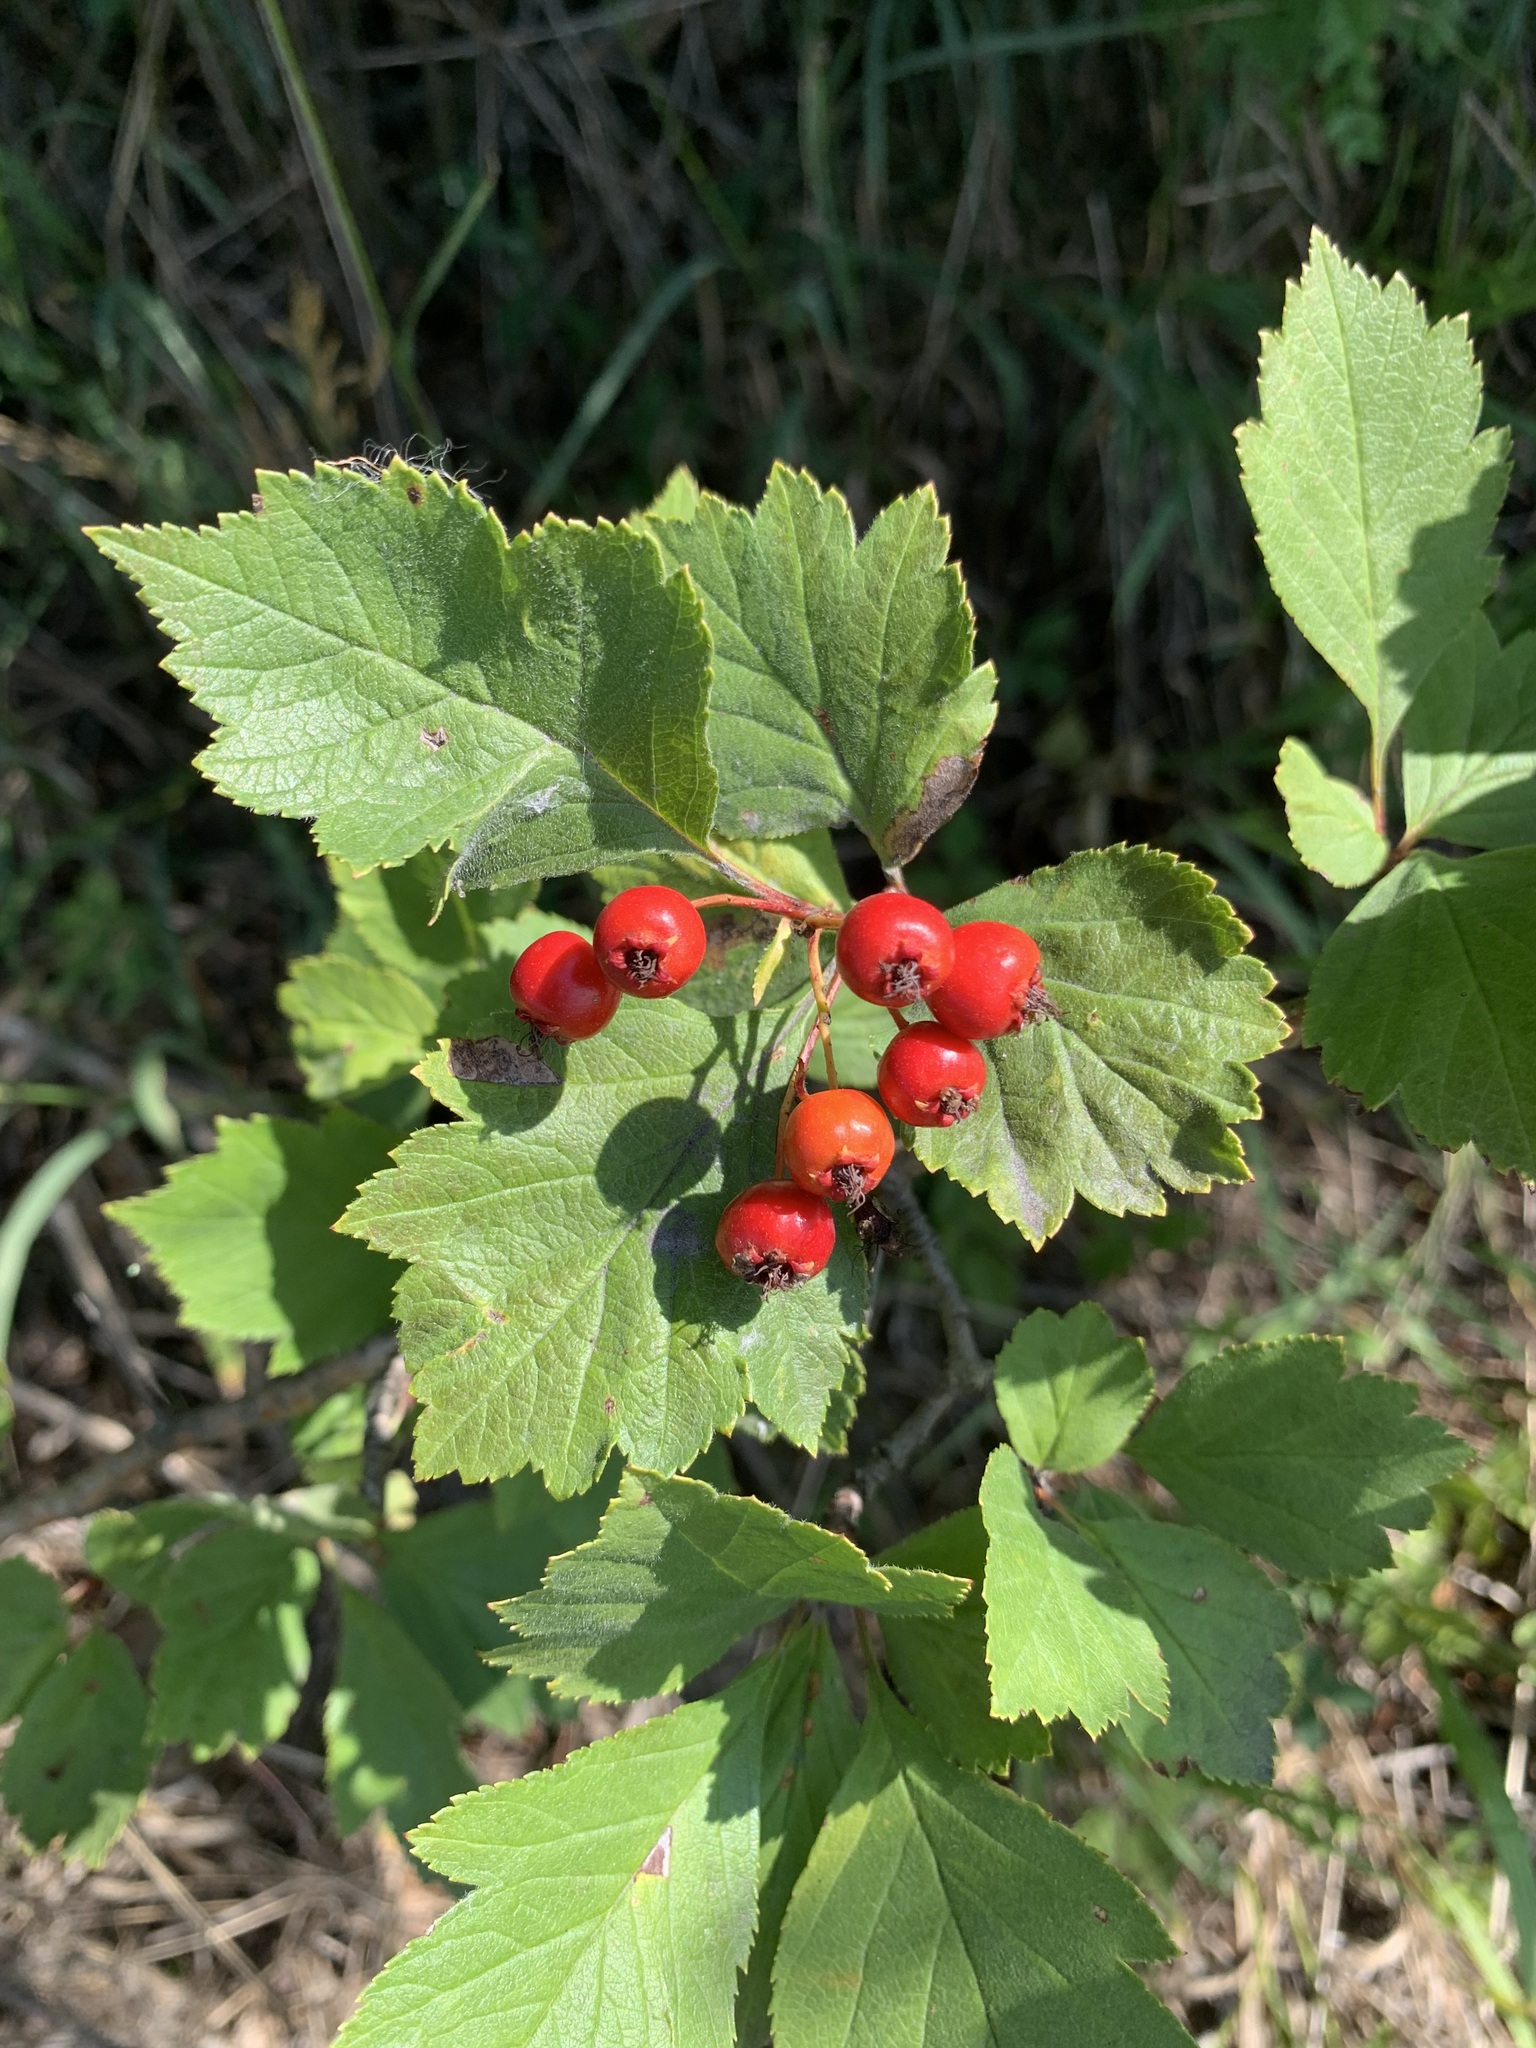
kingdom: Plantae
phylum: Tracheophyta
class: Magnoliopsida
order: Rosales
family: Rosaceae
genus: Crataegus
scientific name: Crataegus sanguinea
